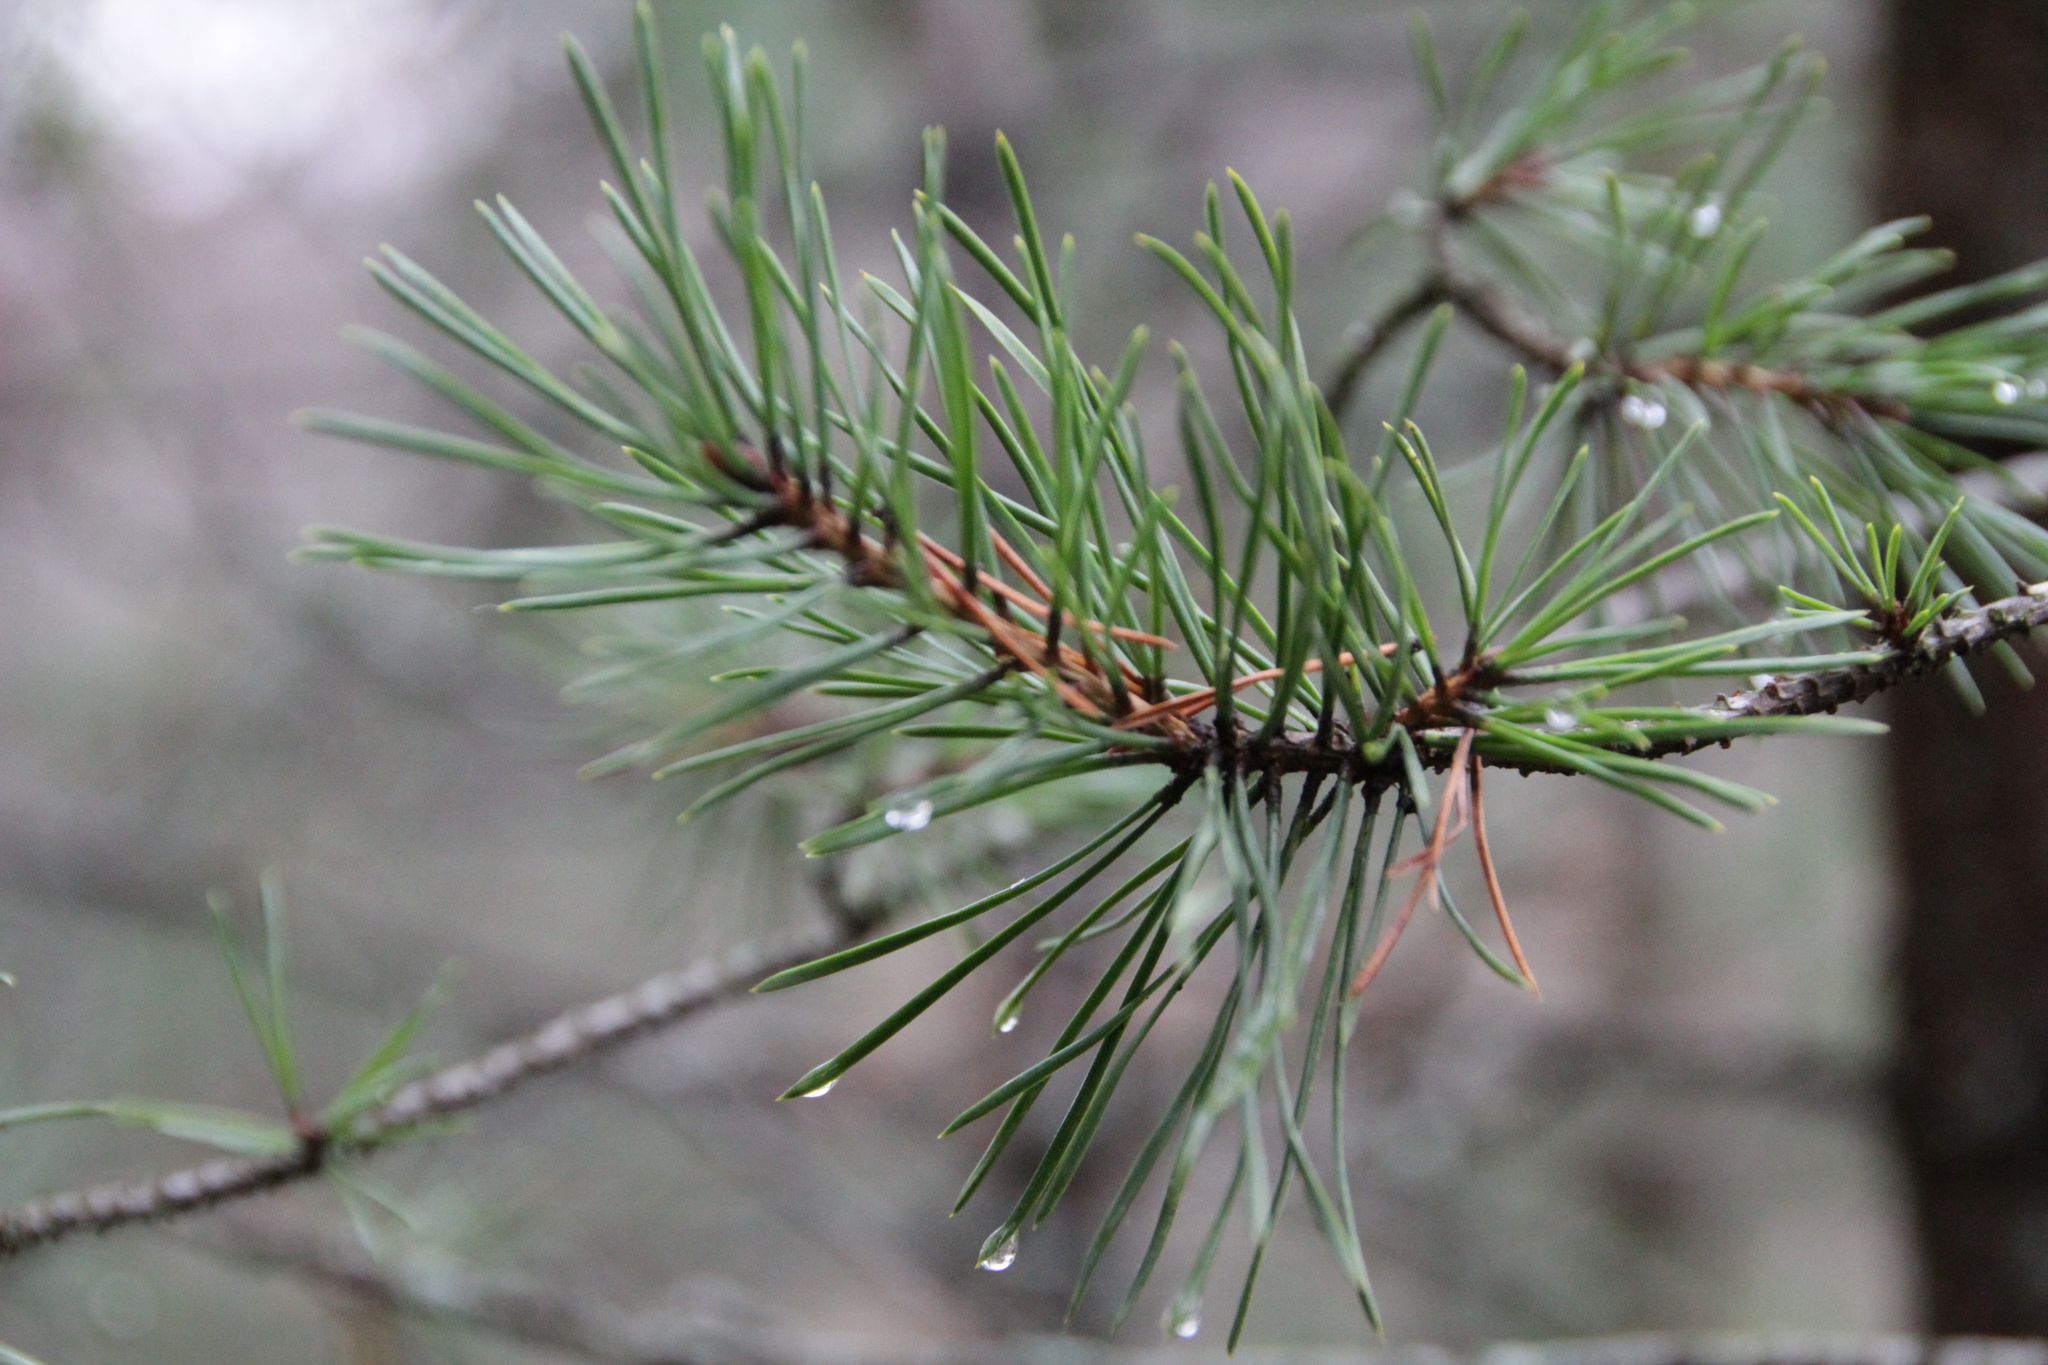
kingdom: Plantae
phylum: Tracheophyta
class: Pinopsida
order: Pinales
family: Pinaceae
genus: Pinus
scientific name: Pinus sylvestris
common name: Scots pine
